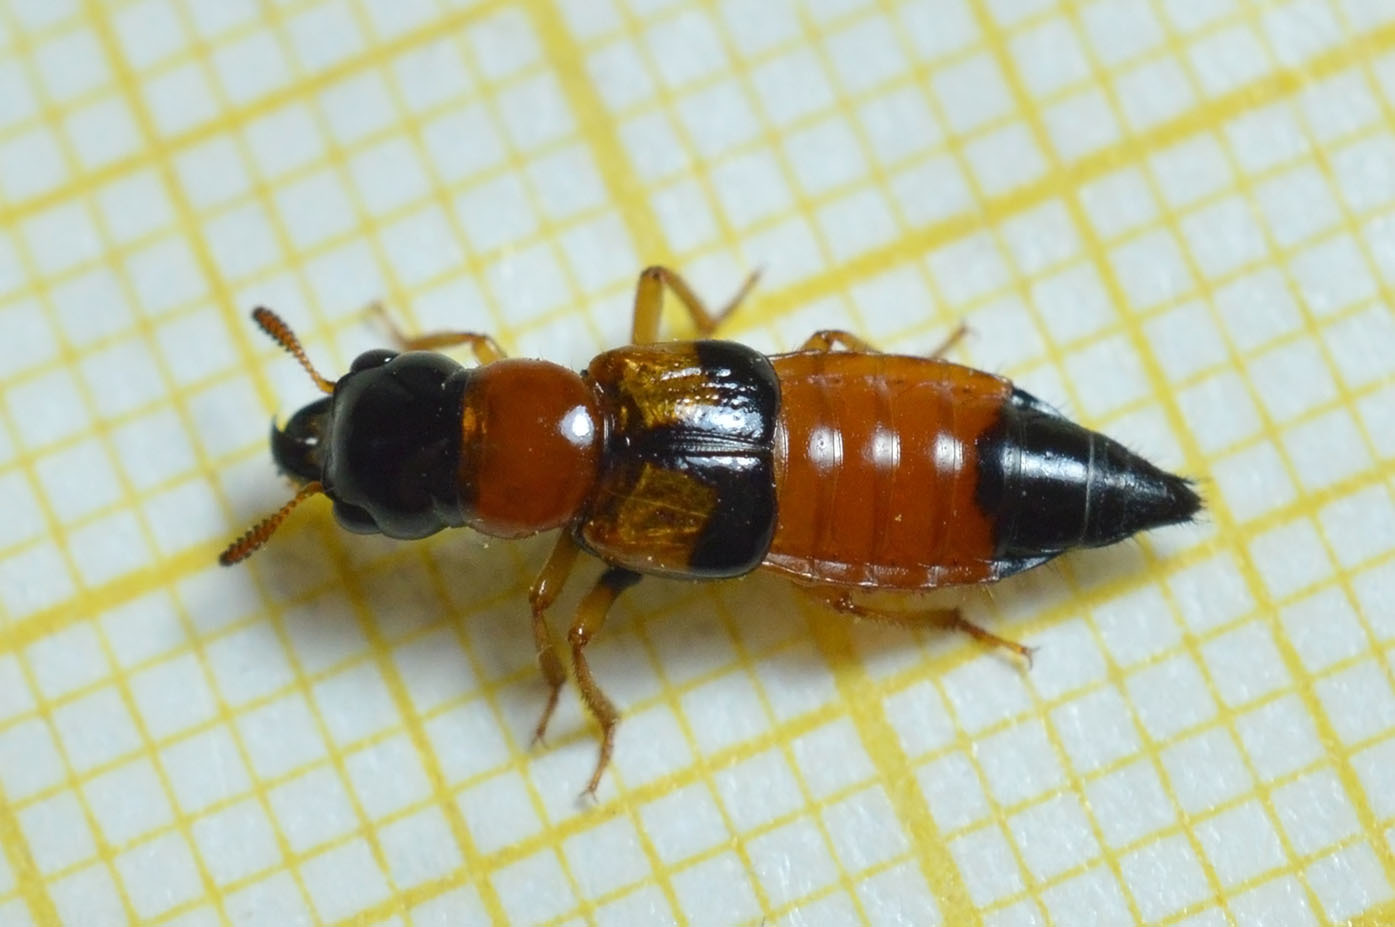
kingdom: Animalia
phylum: Arthropoda
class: Insecta
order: Coleoptera
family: Staphylinidae
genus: Oxyporus
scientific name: Oxyporus rufus
